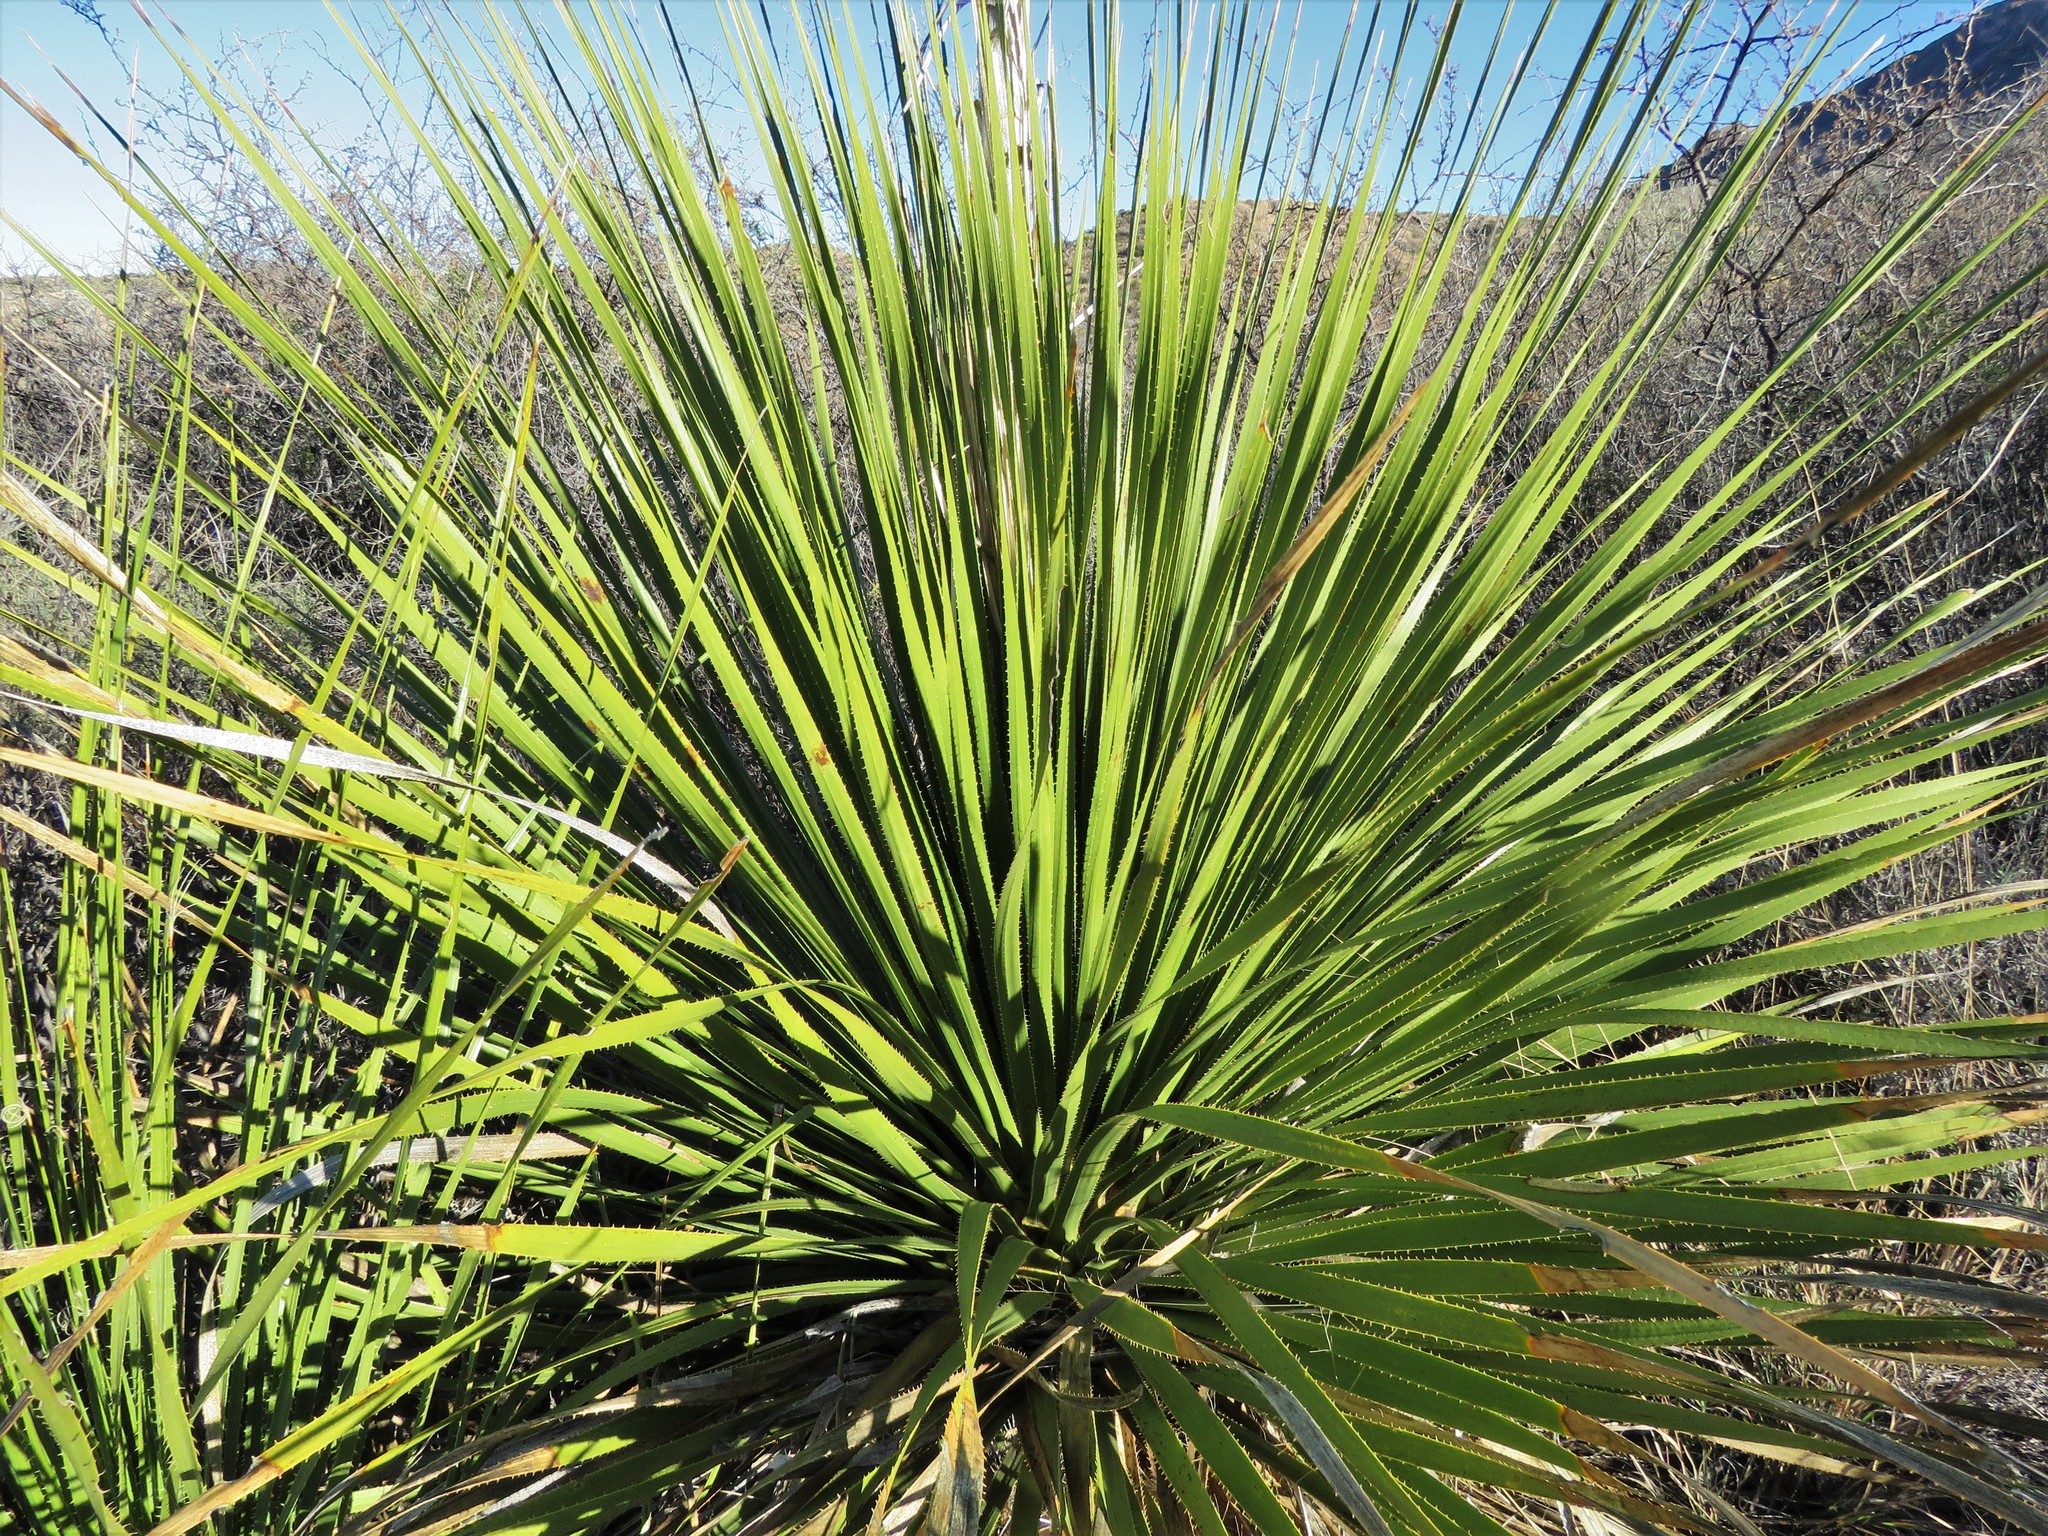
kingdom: Plantae
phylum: Tracheophyta
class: Liliopsida
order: Asparagales
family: Asparagaceae
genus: Dasylirion
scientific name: Dasylirion leiophyllum
